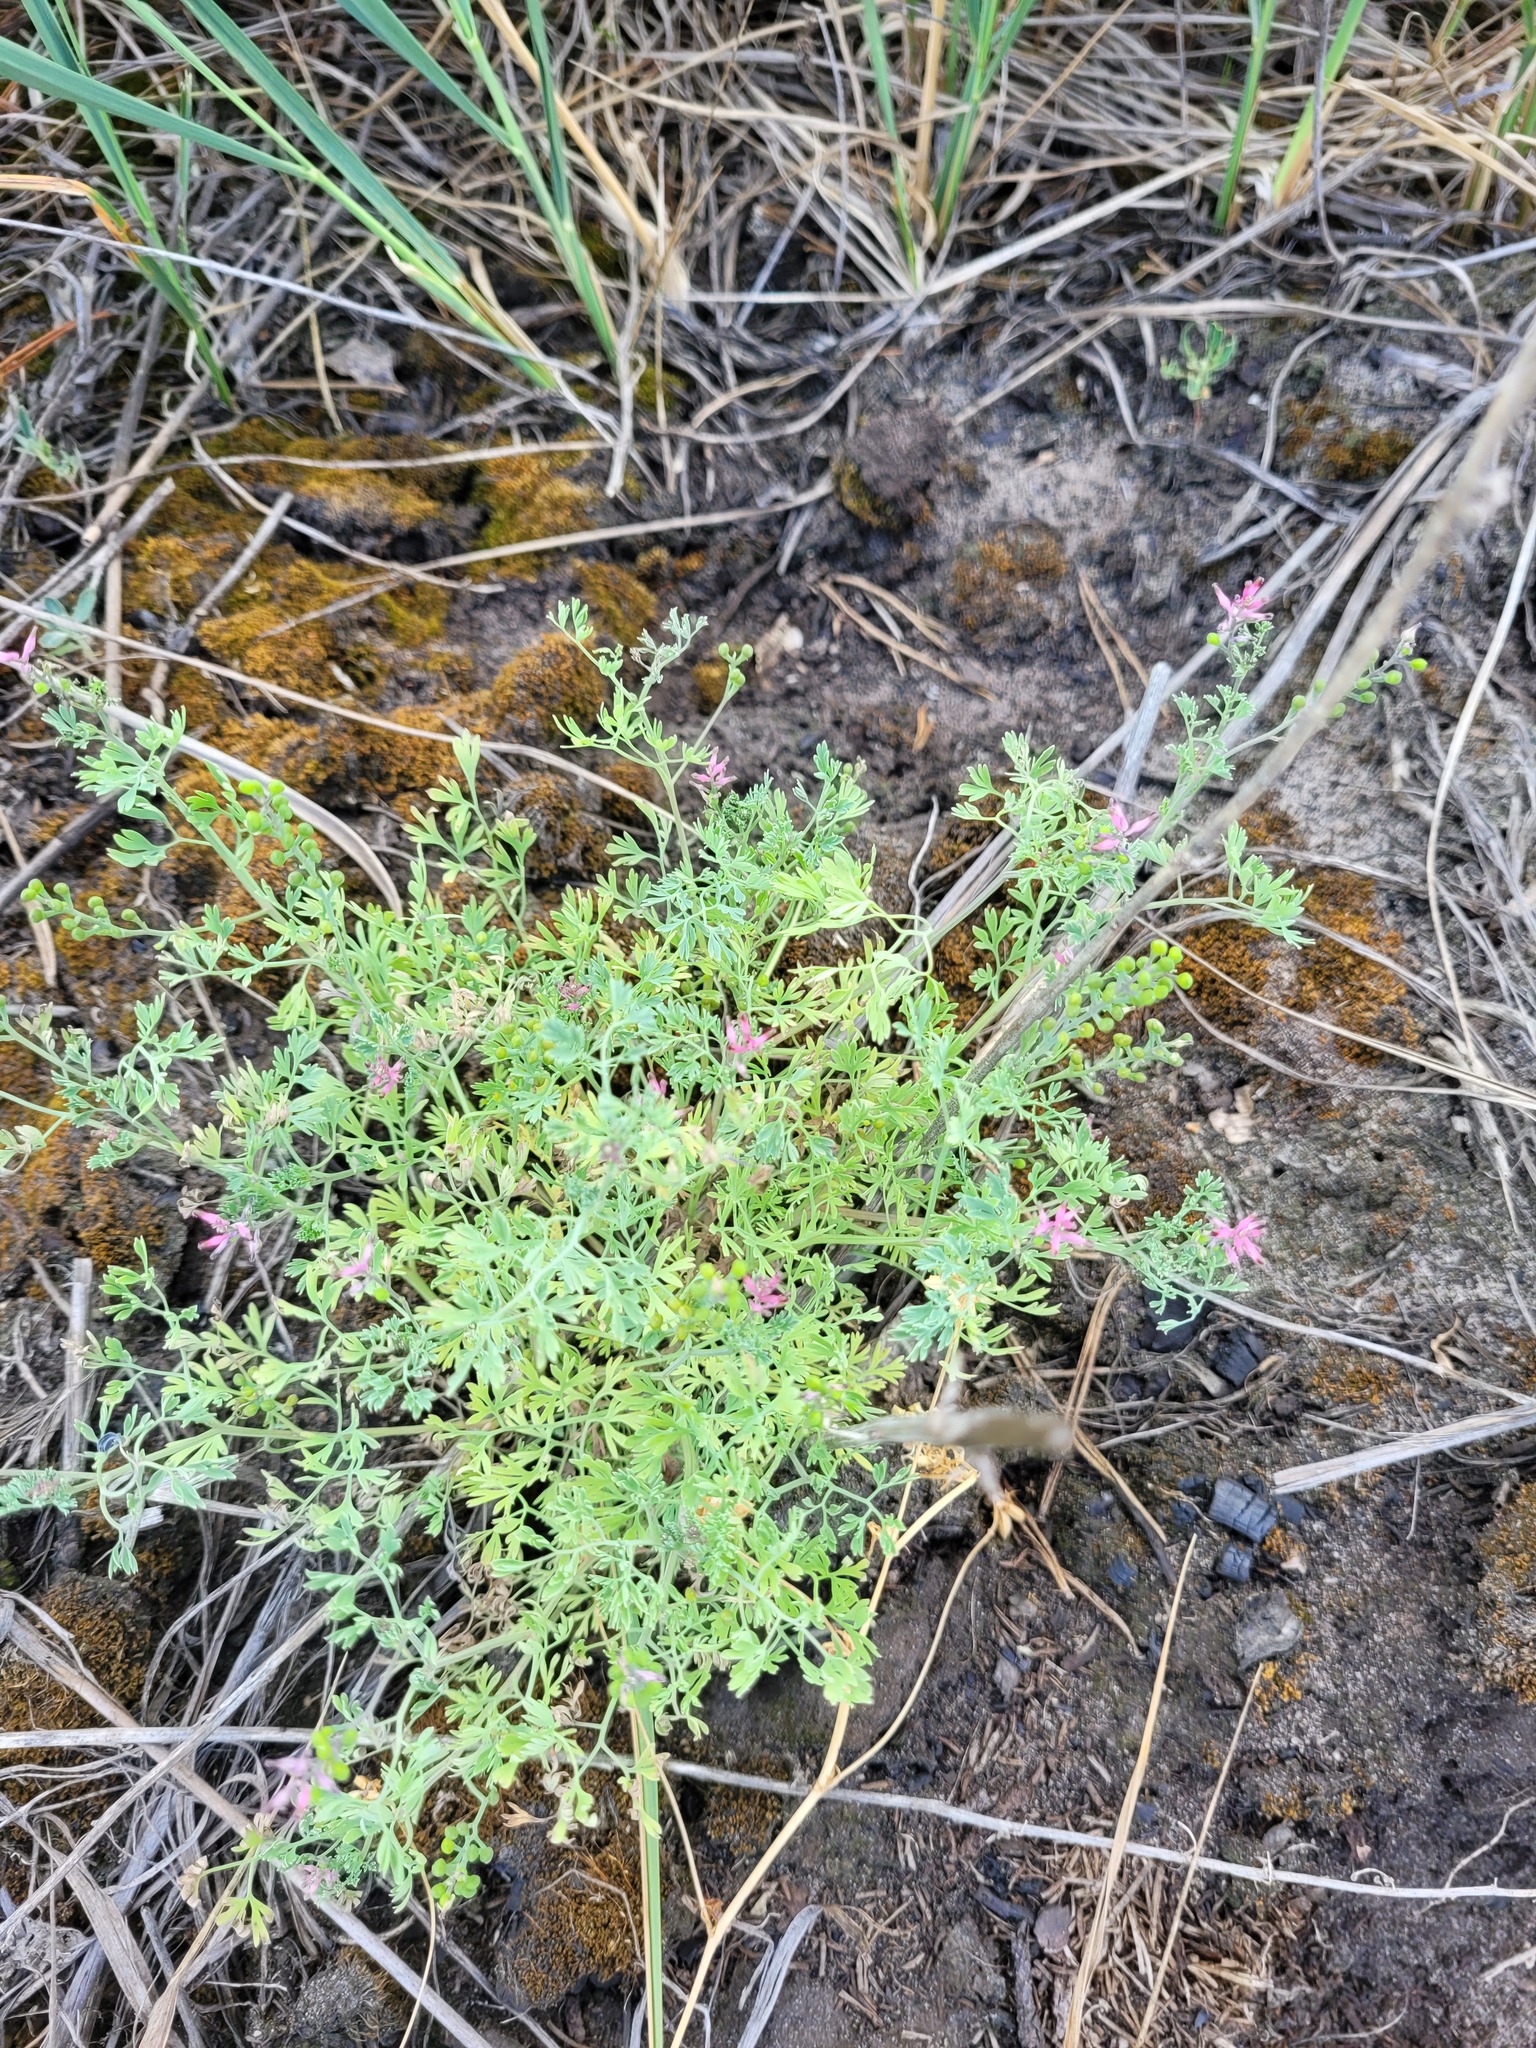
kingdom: Plantae
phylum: Tracheophyta
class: Magnoliopsida
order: Ranunculales
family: Papaveraceae
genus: Fumaria
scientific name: Fumaria schleicheri
